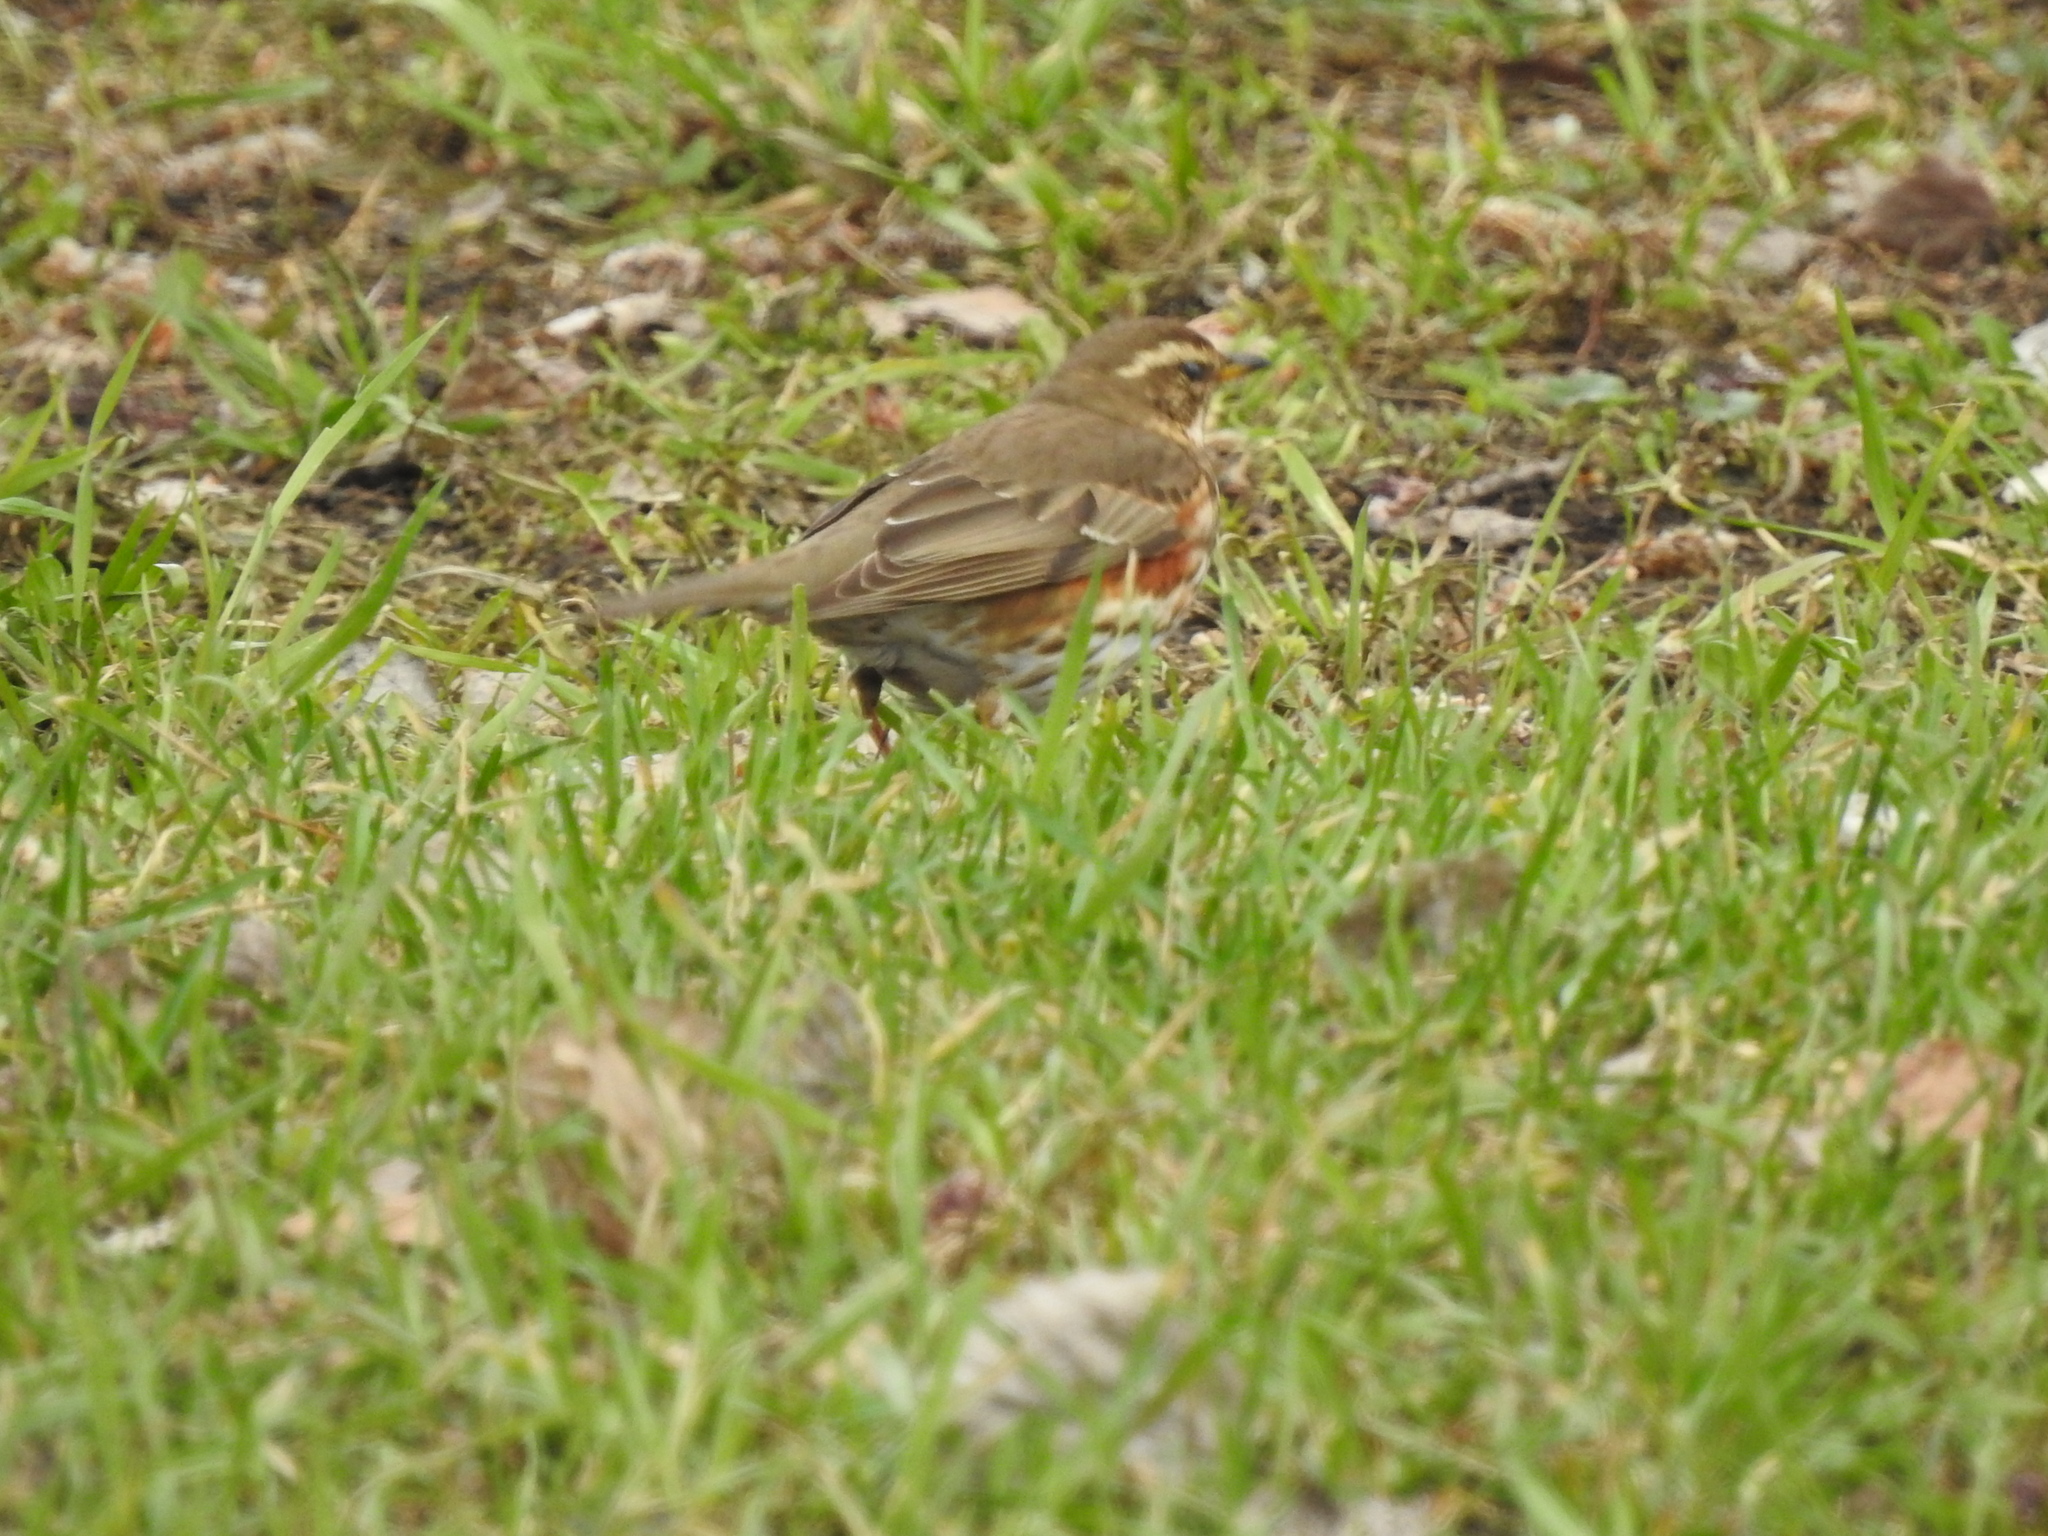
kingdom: Animalia
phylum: Chordata
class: Aves
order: Passeriformes
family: Turdidae
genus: Turdus
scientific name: Turdus iliacus
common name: Redwing
